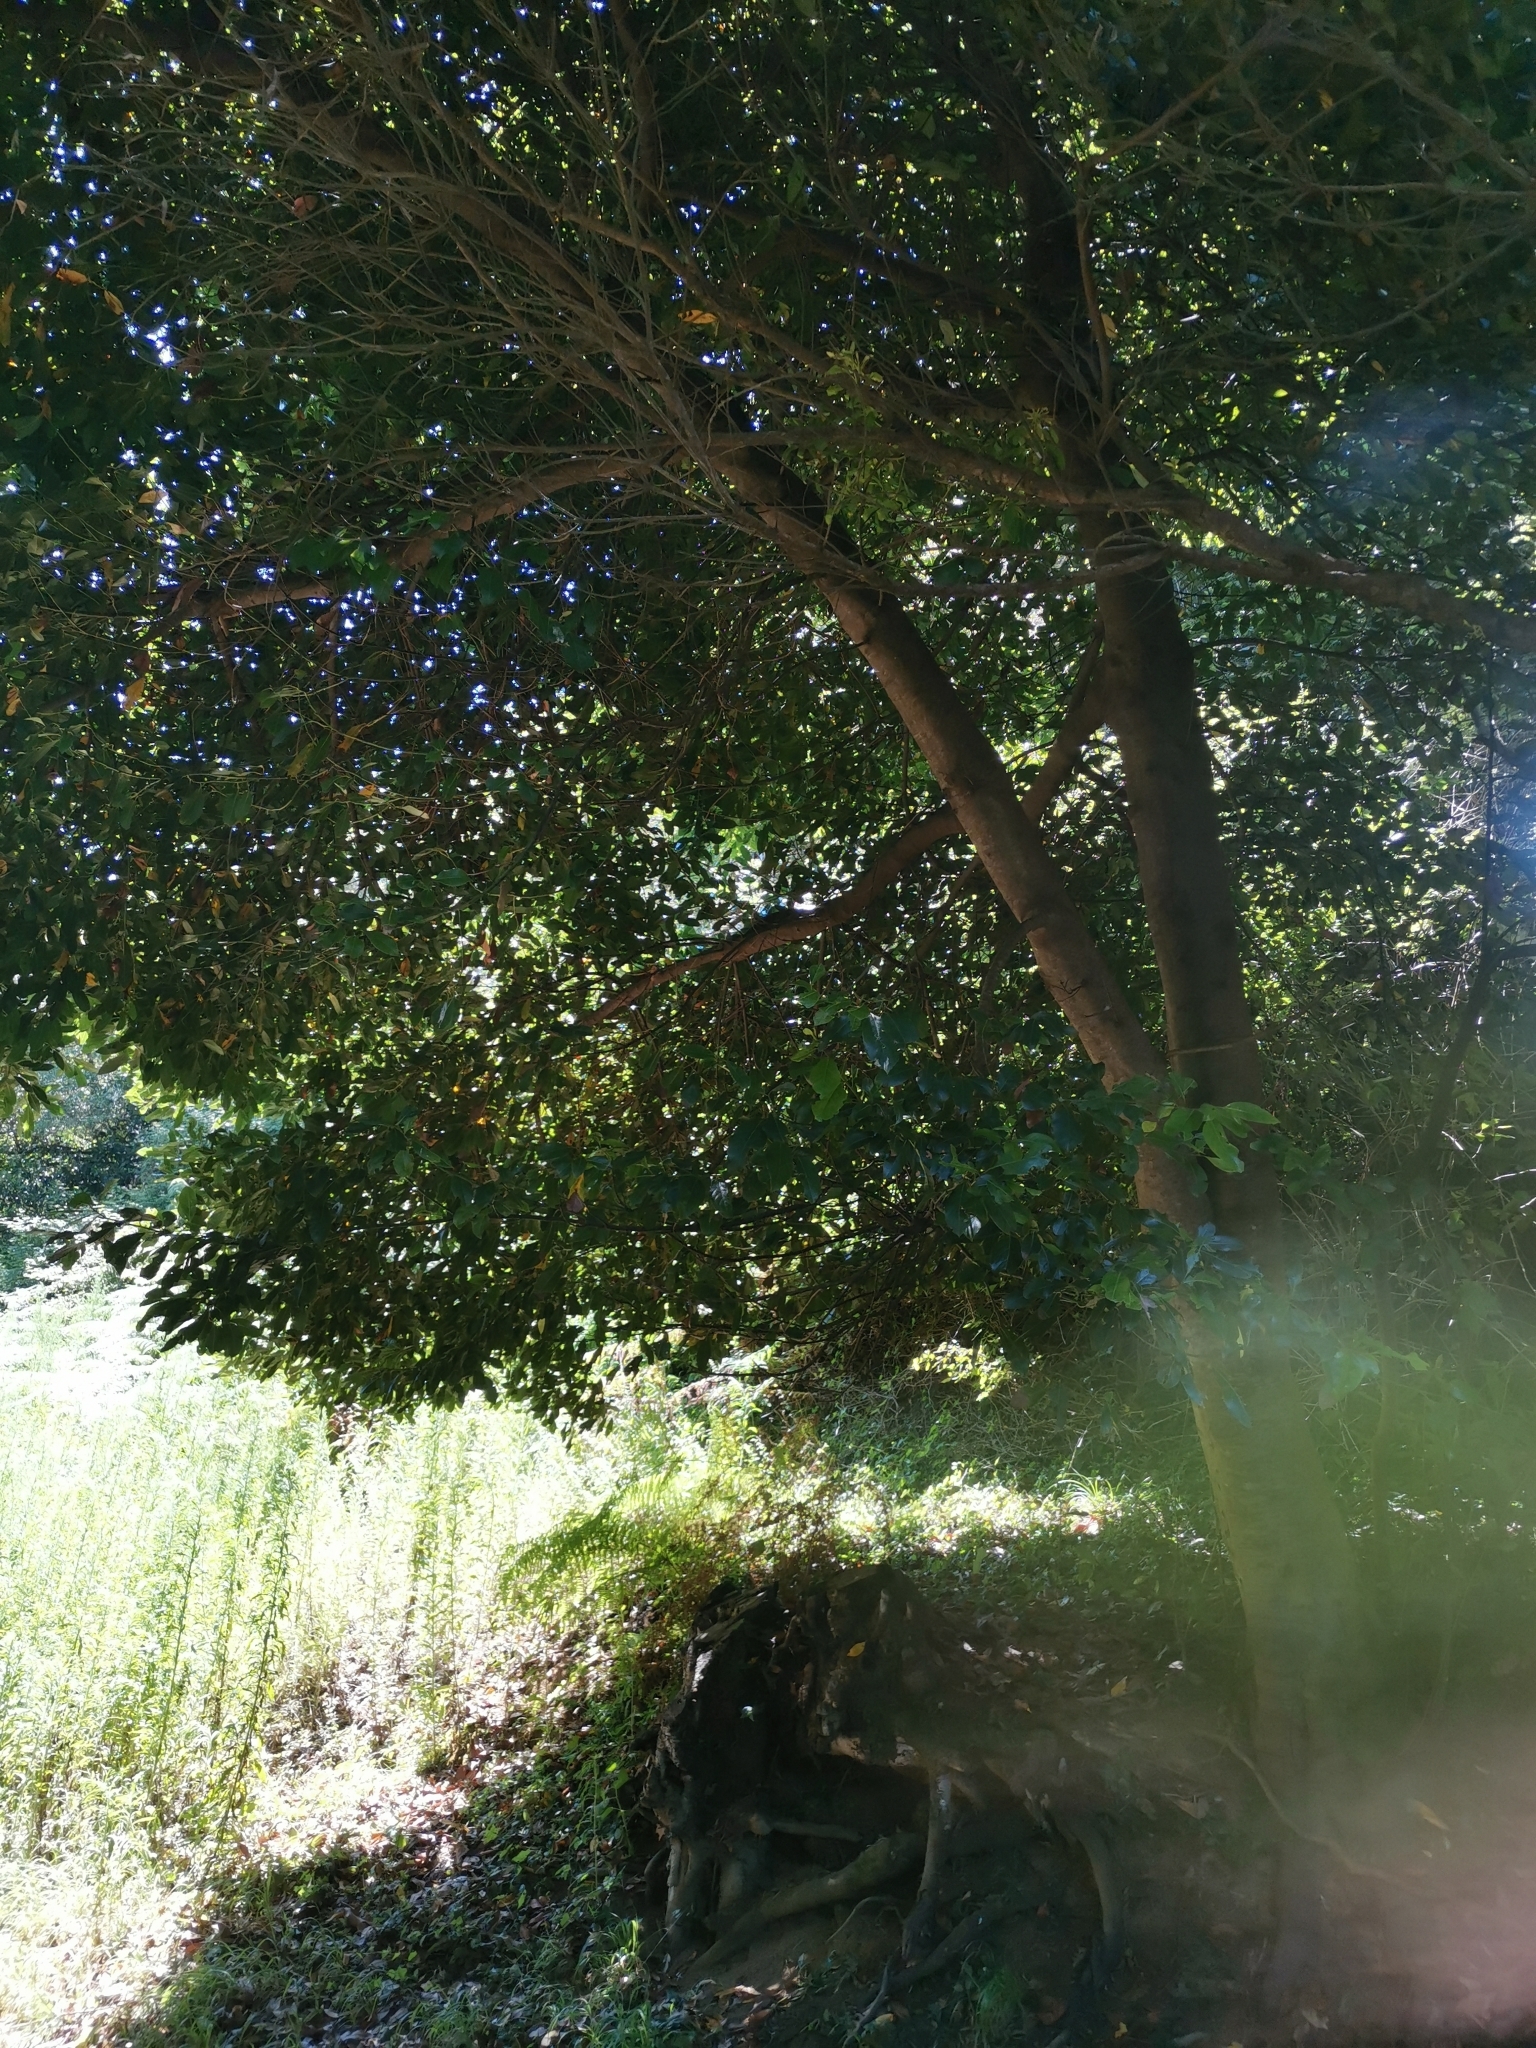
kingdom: Plantae
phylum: Tracheophyta
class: Magnoliopsida
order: Laurales
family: Lauraceae
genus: Persea
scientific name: Persea indica
